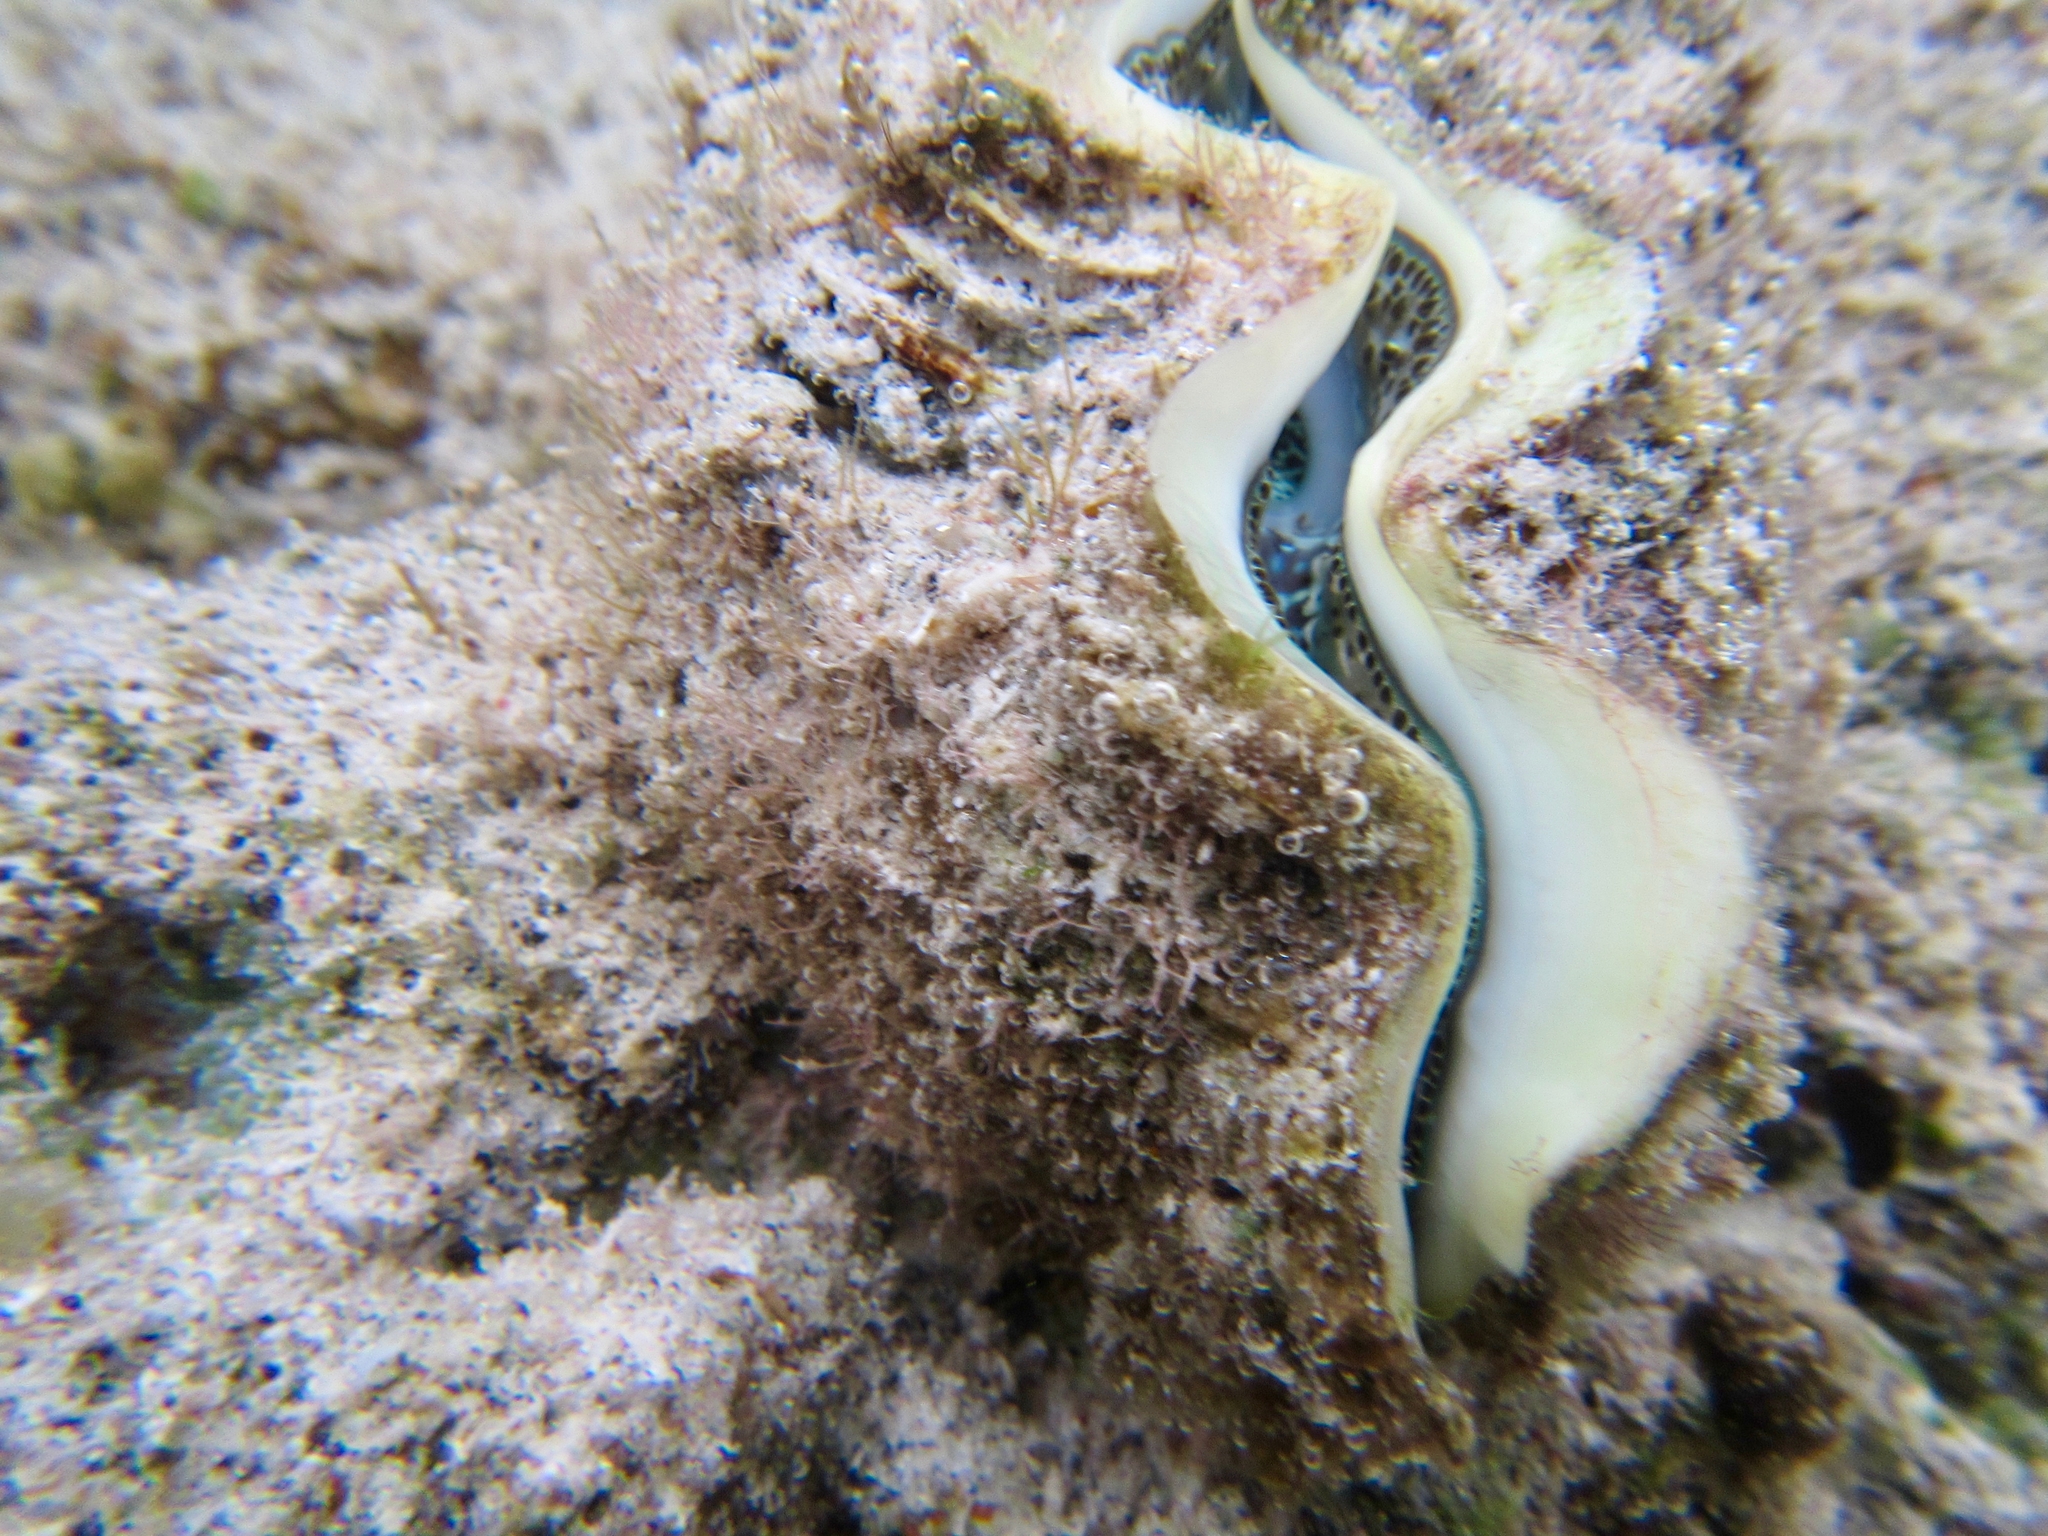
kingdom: Animalia
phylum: Mollusca
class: Bivalvia
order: Cardiida
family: Cardiidae
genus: Tridacna
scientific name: Tridacna maxima
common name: Small giant clam
